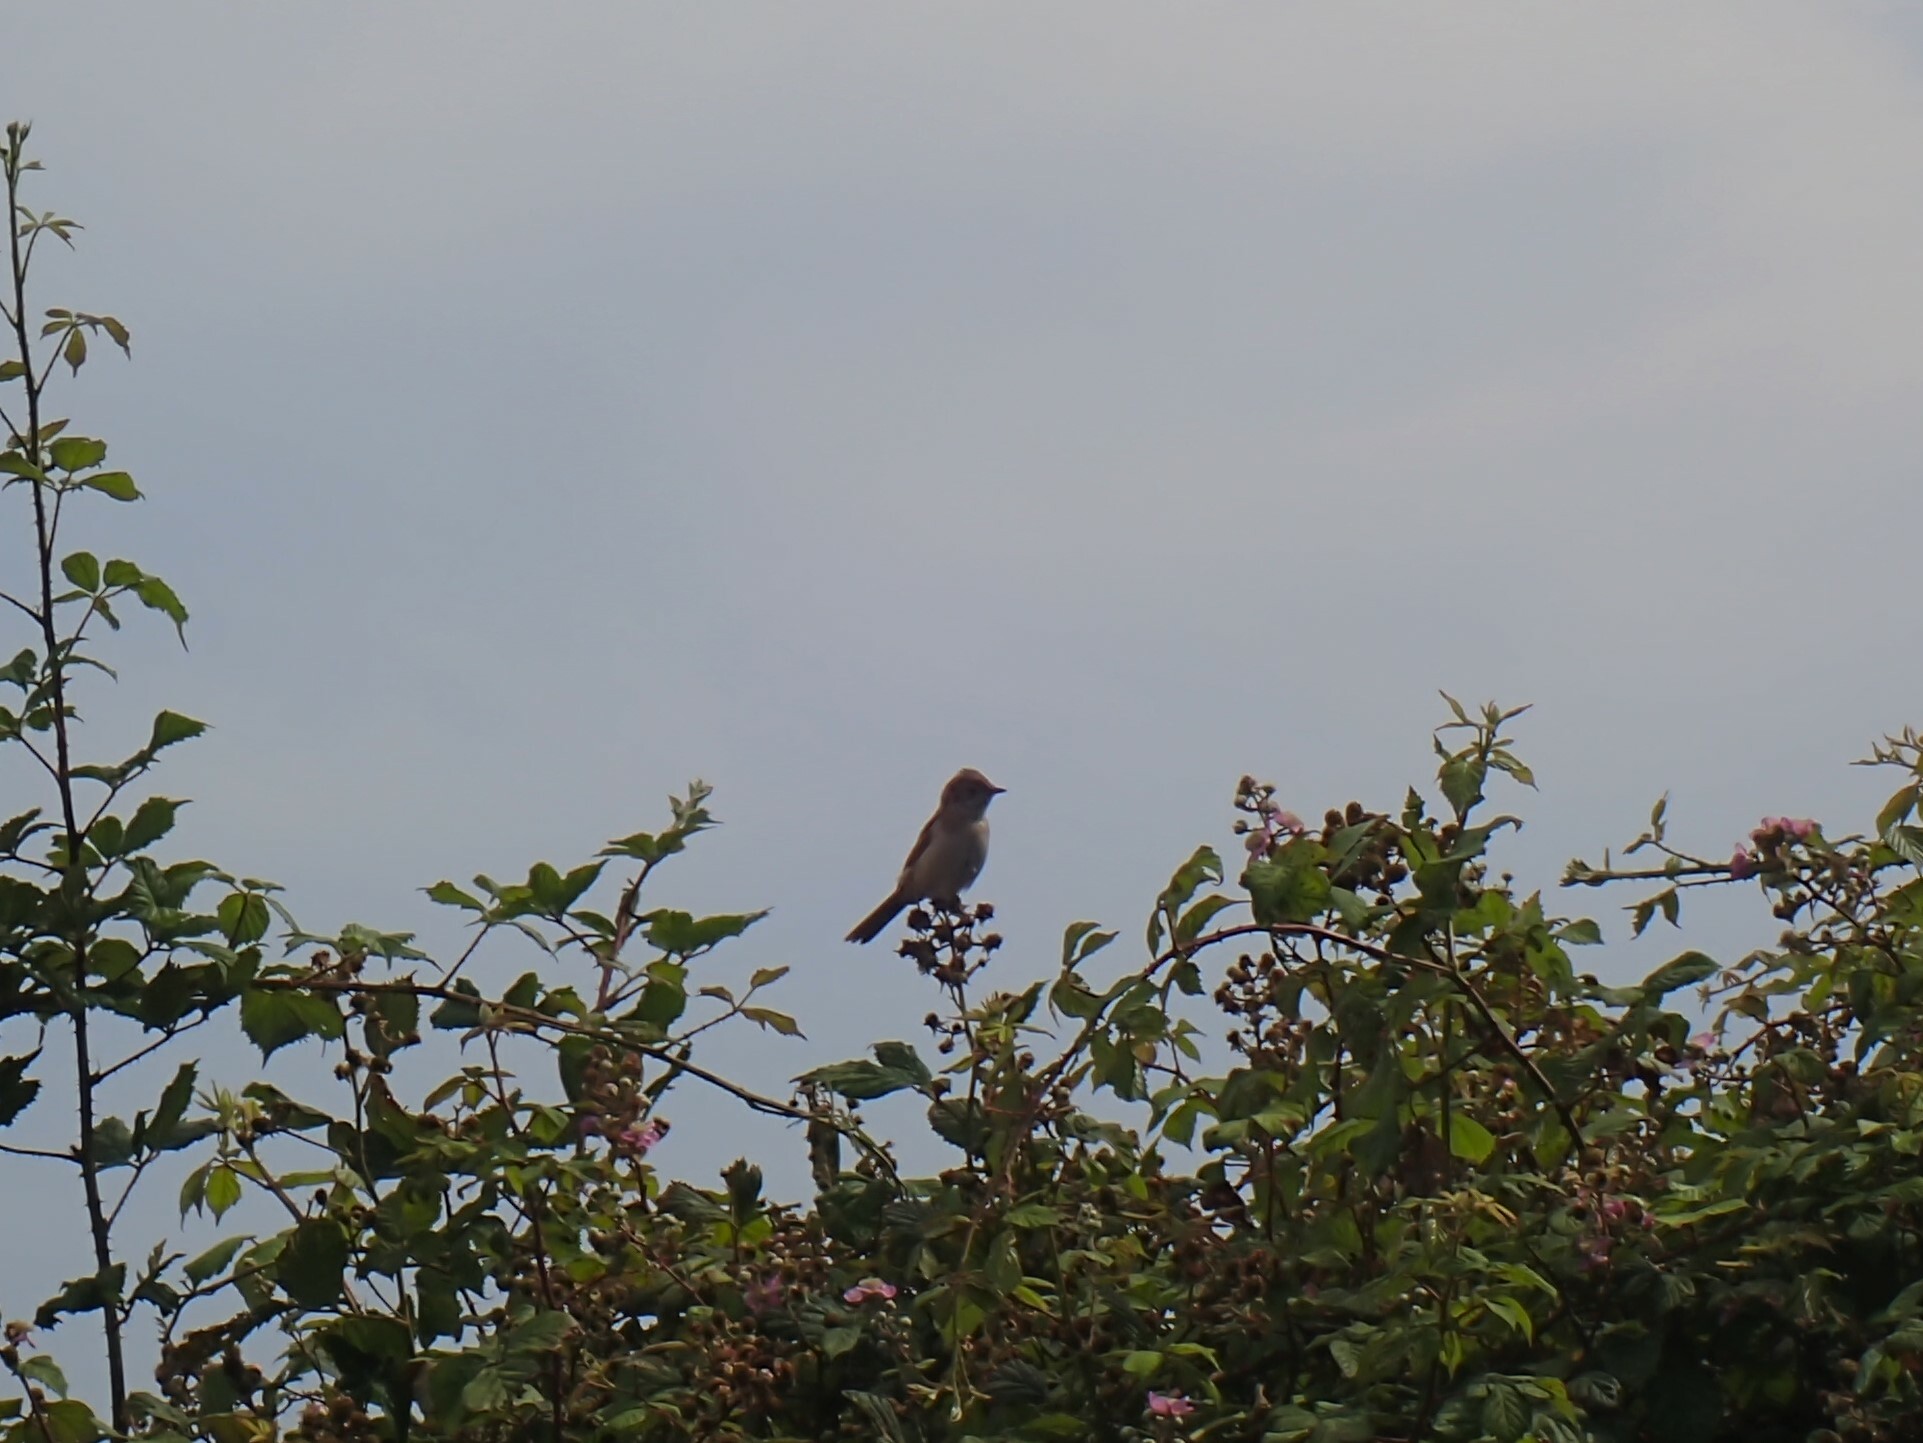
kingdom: Animalia
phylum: Chordata
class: Aves
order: Passeriformes
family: Sylviidae
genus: Sylvia
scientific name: Sylvia communis
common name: Common whitethroat
